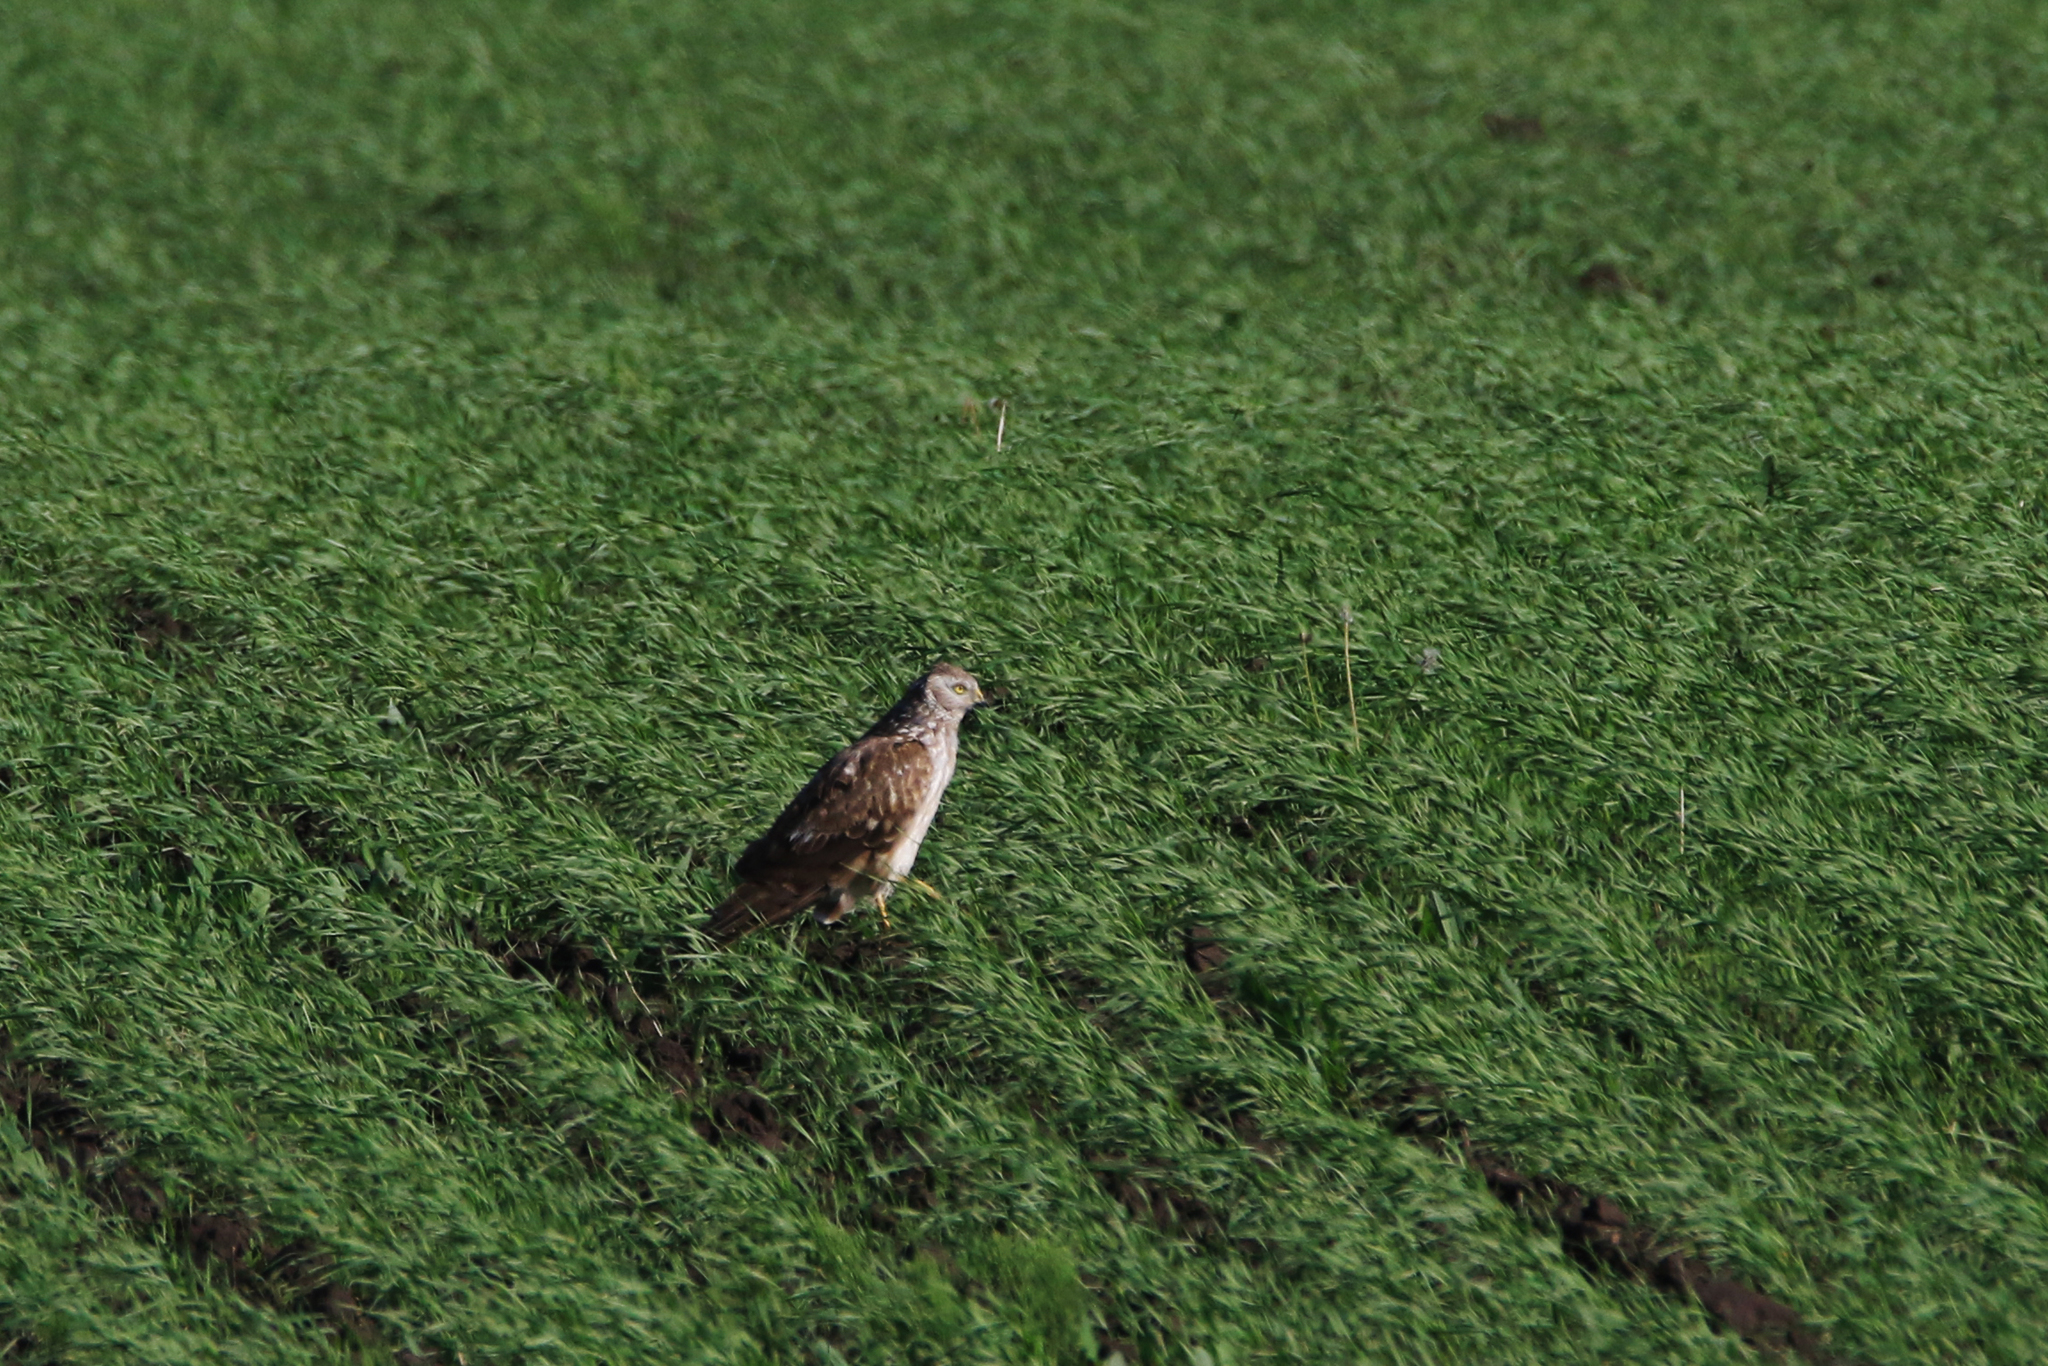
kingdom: Animalia
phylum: Chordata
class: Aves
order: Accipitriformes
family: Accipitridae
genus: Circus
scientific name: Circus cyaneus
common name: Hen harrier
